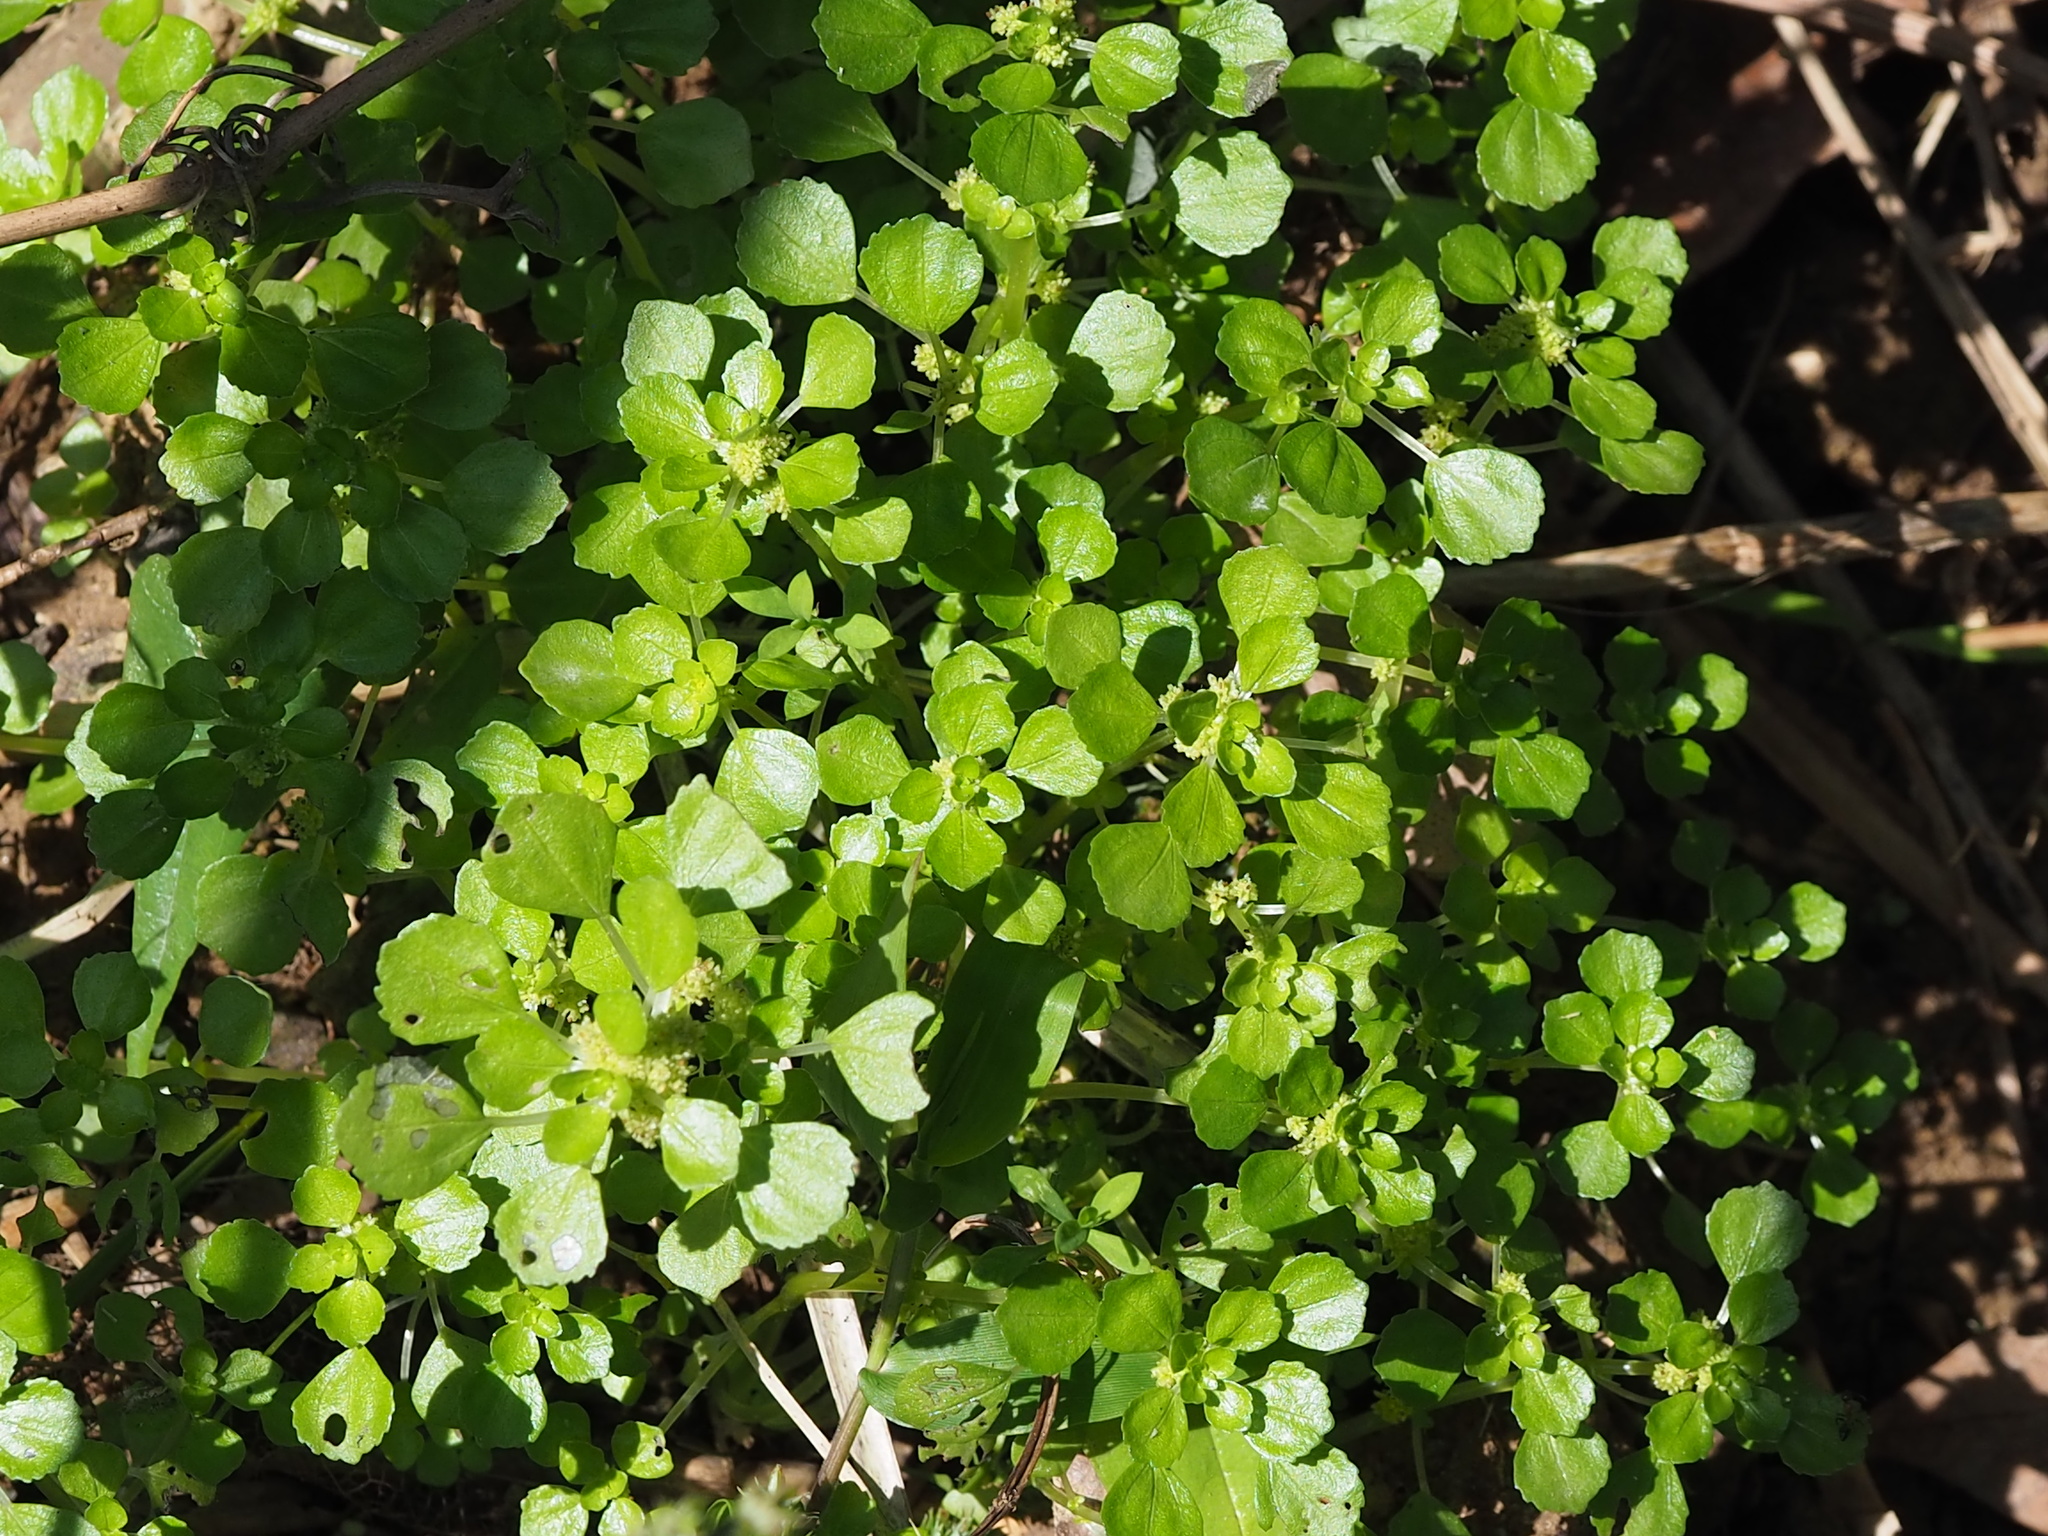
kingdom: Plantae
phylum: Tracheophyta
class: Magnoliopsida
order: Rosales
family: Urticaceae
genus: Pilea
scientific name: Pilea peploides
